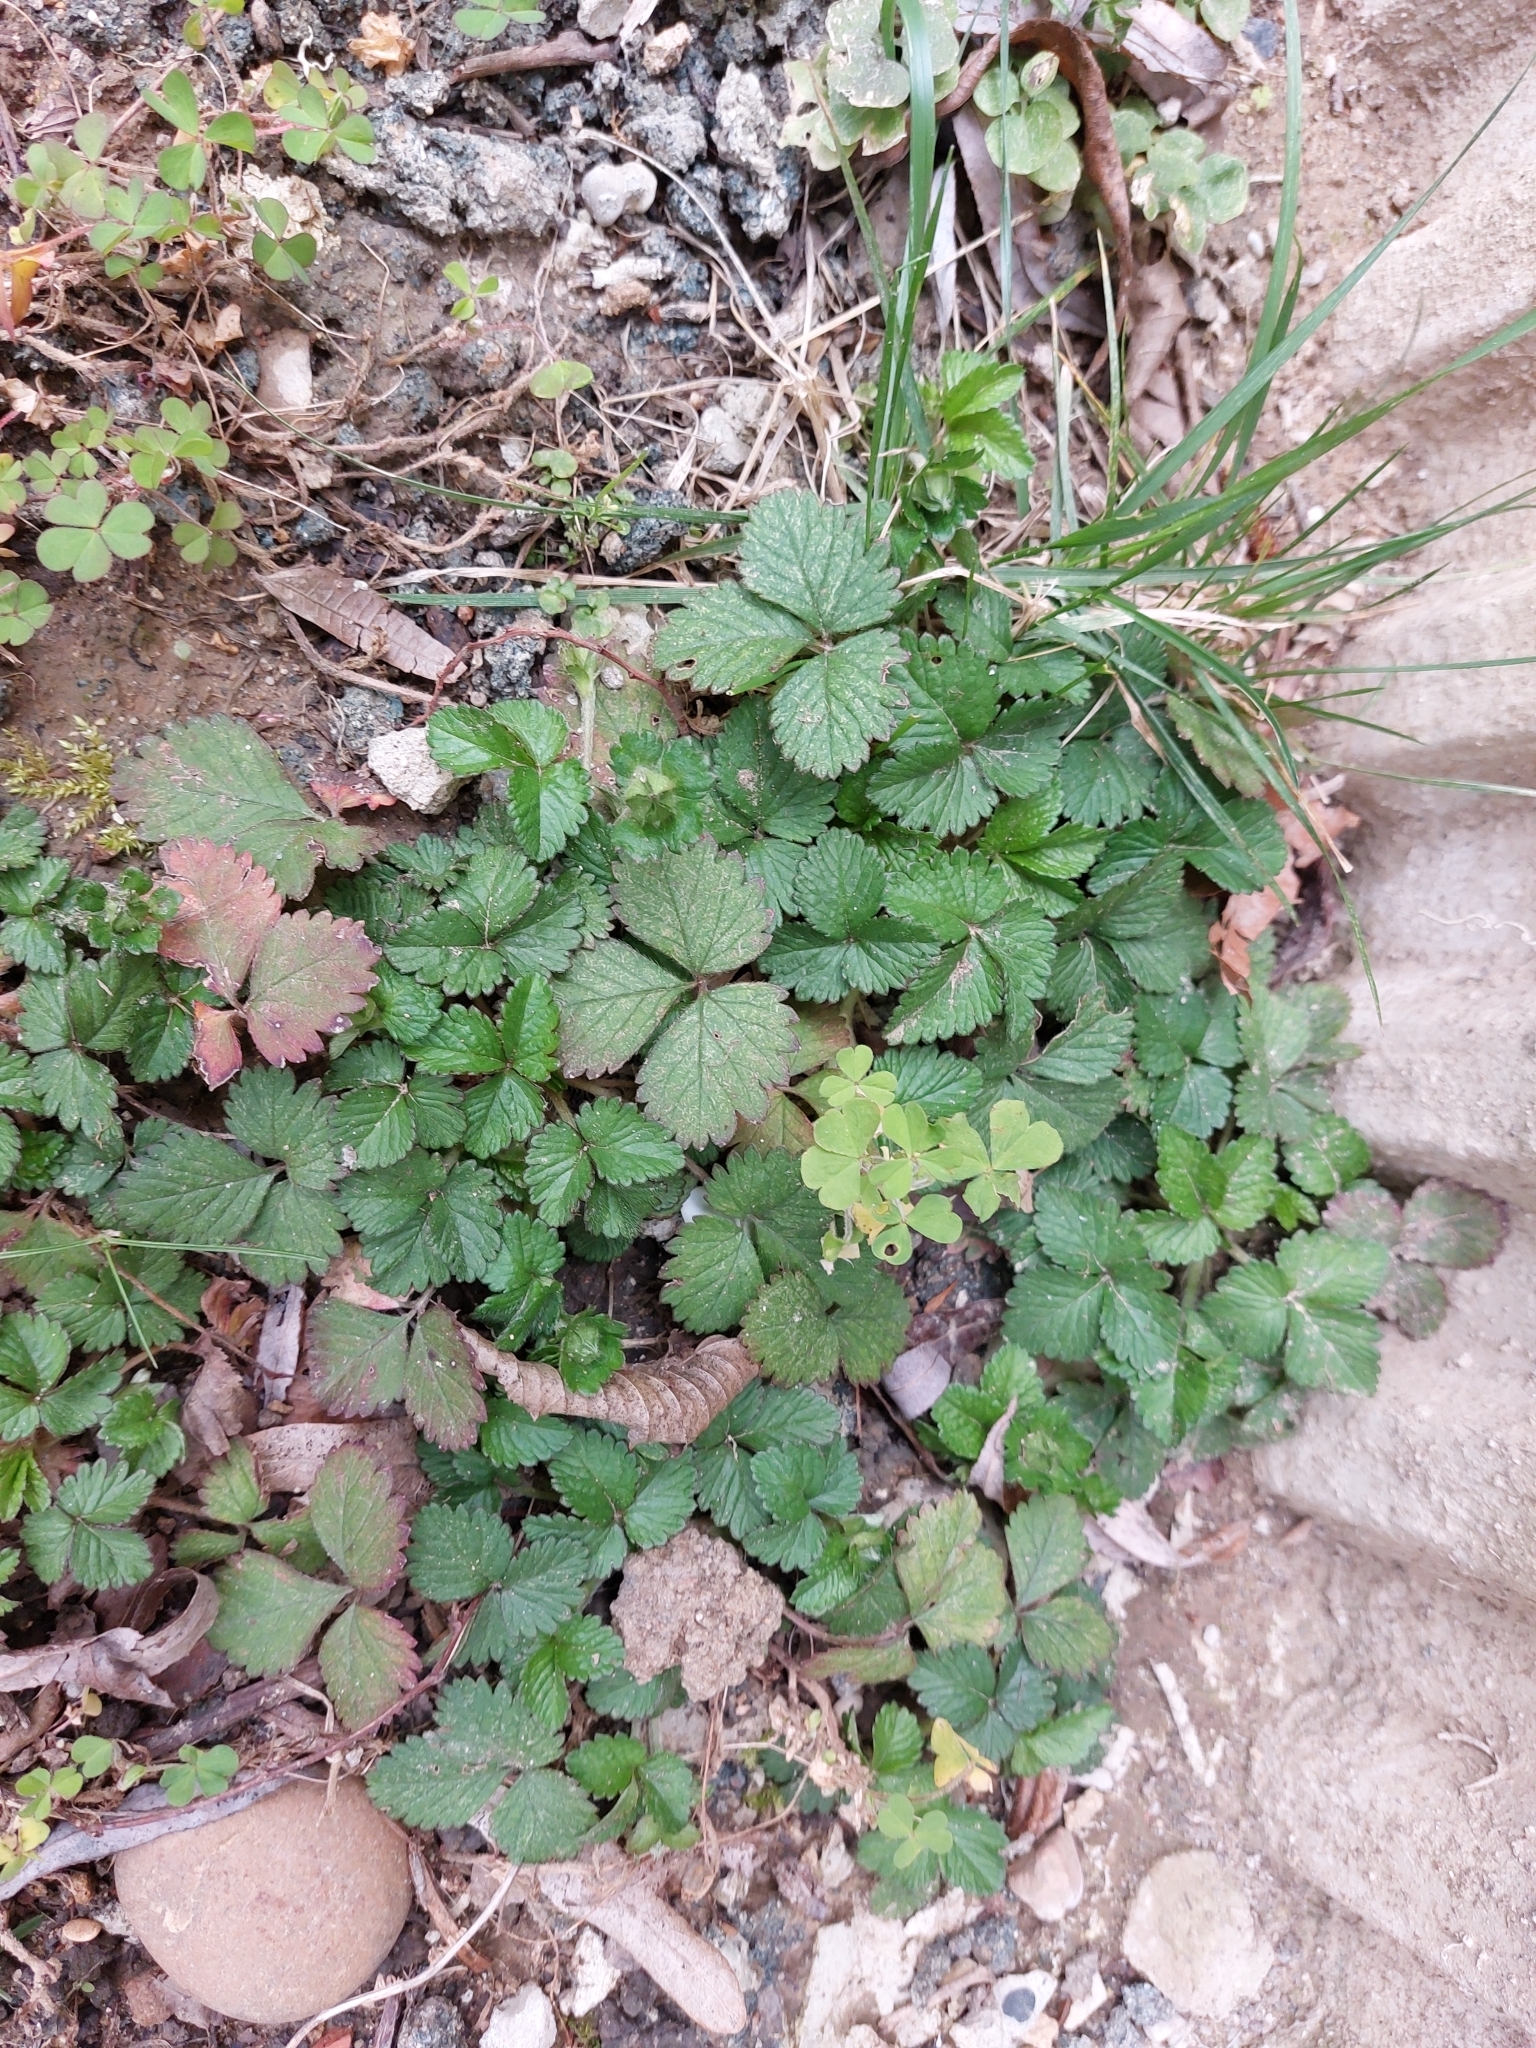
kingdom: Plantae
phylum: Tracheophyta
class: Magnoliopsida
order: Rosales
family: Rosaceae
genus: Potentilla
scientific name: Potentilla indica
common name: Yellow-flowered strawberry
